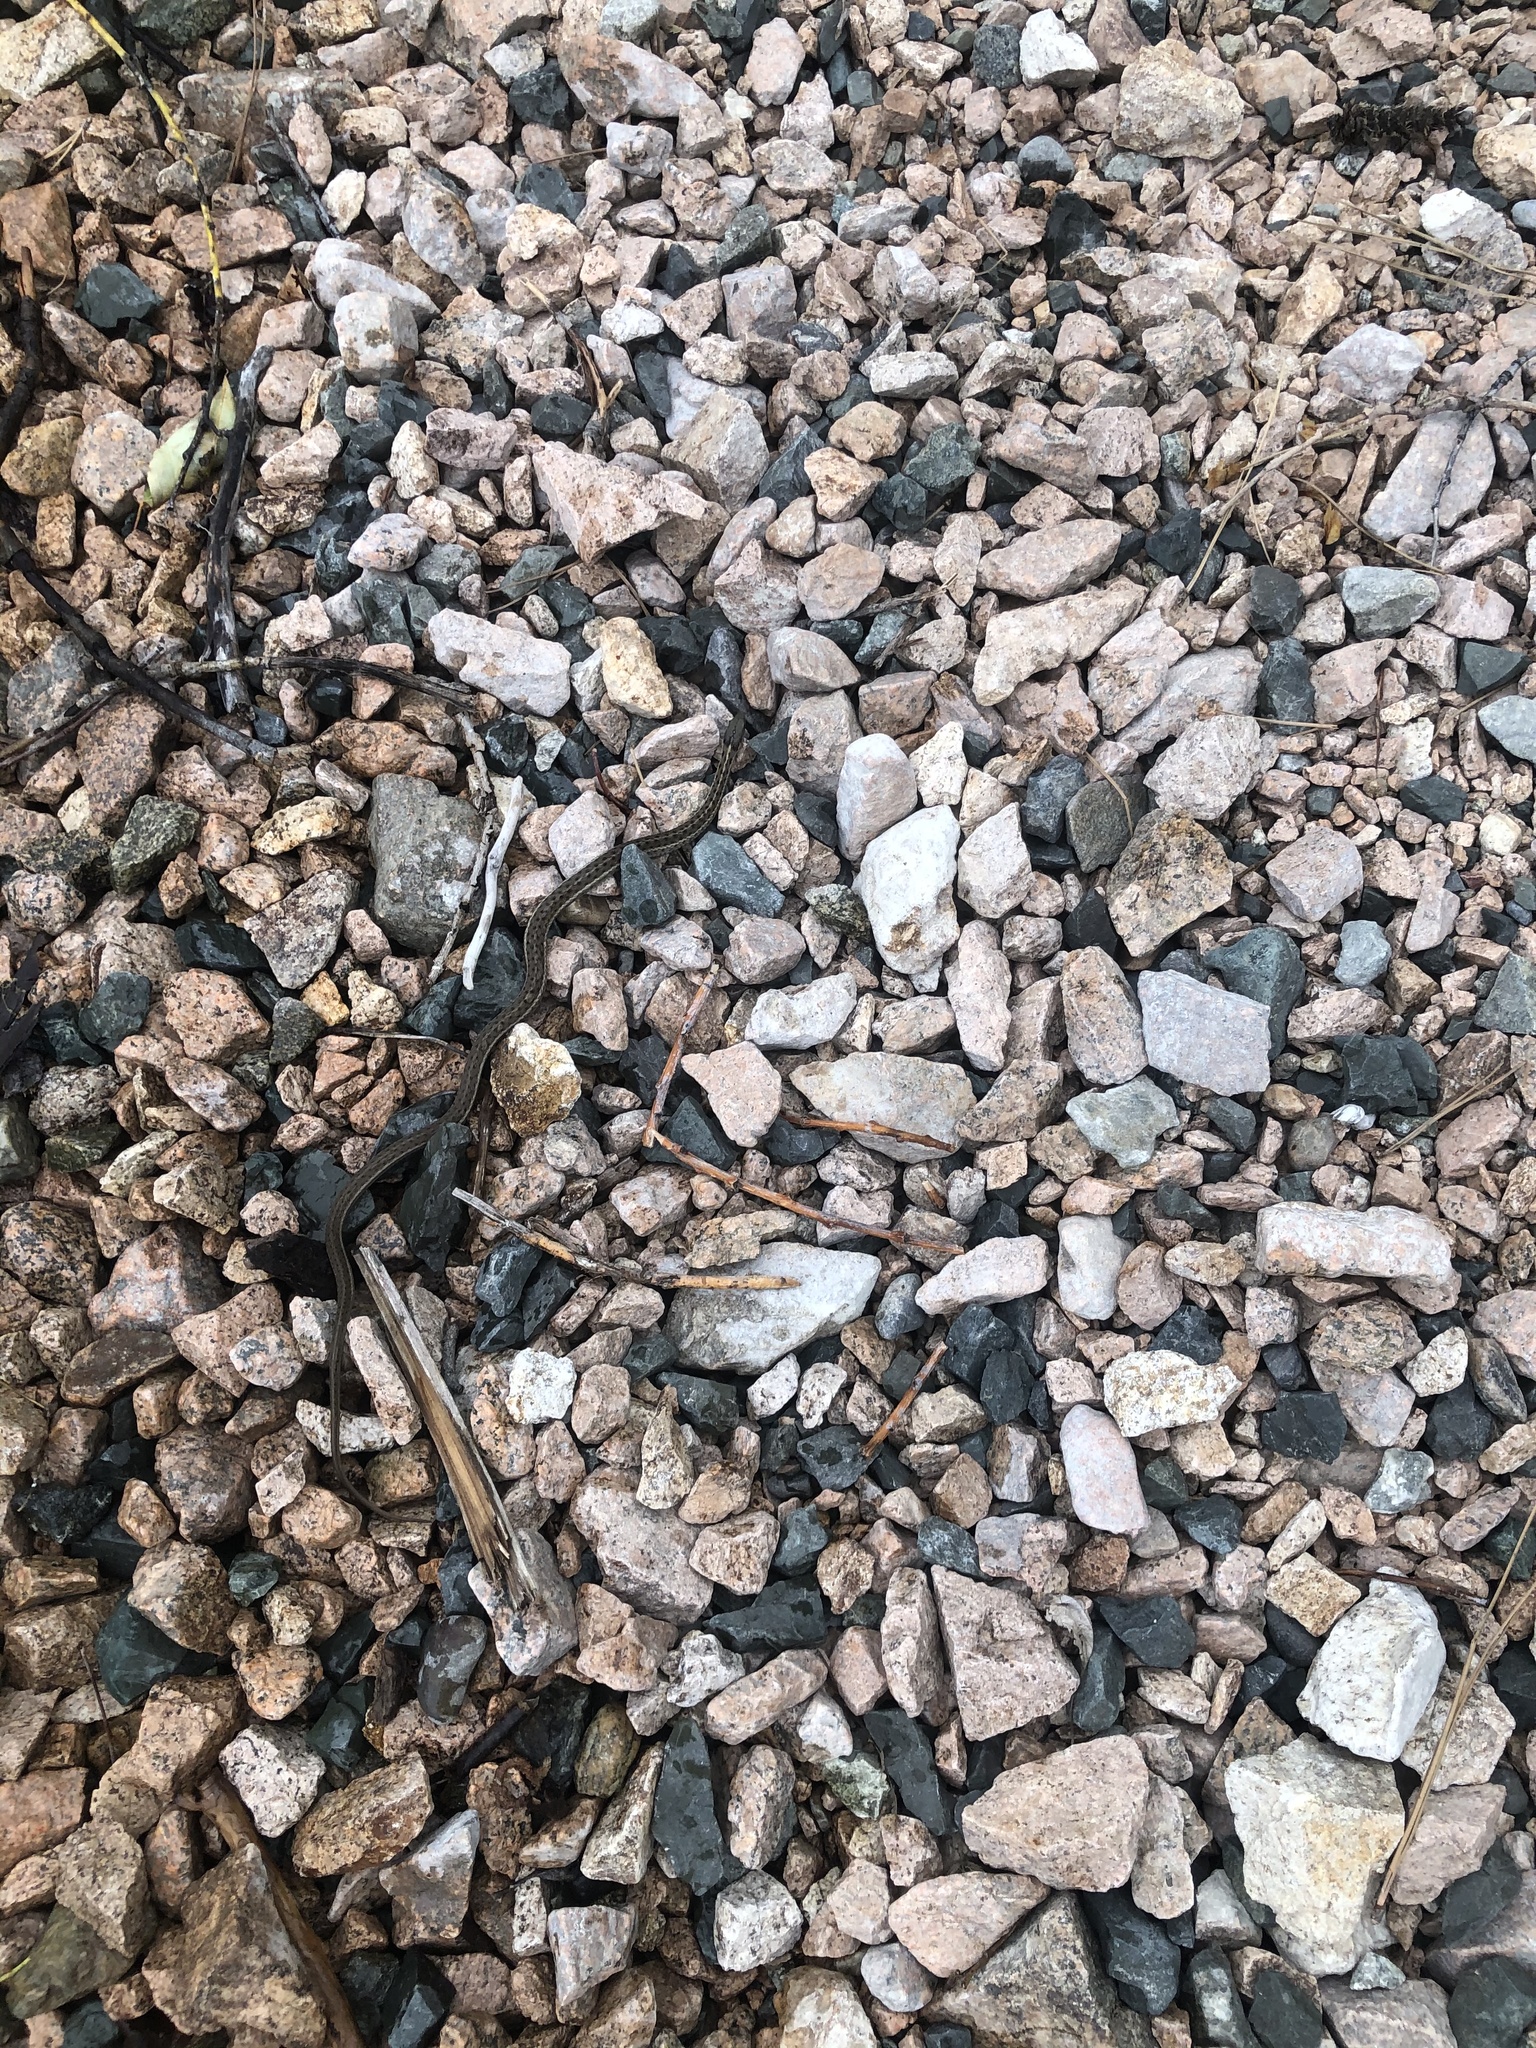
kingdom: Animalia
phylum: Chordata
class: Squamata
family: Colubridae
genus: Thamnophis
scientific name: Thamnophis elegans
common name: Western terrestrial garter snake
